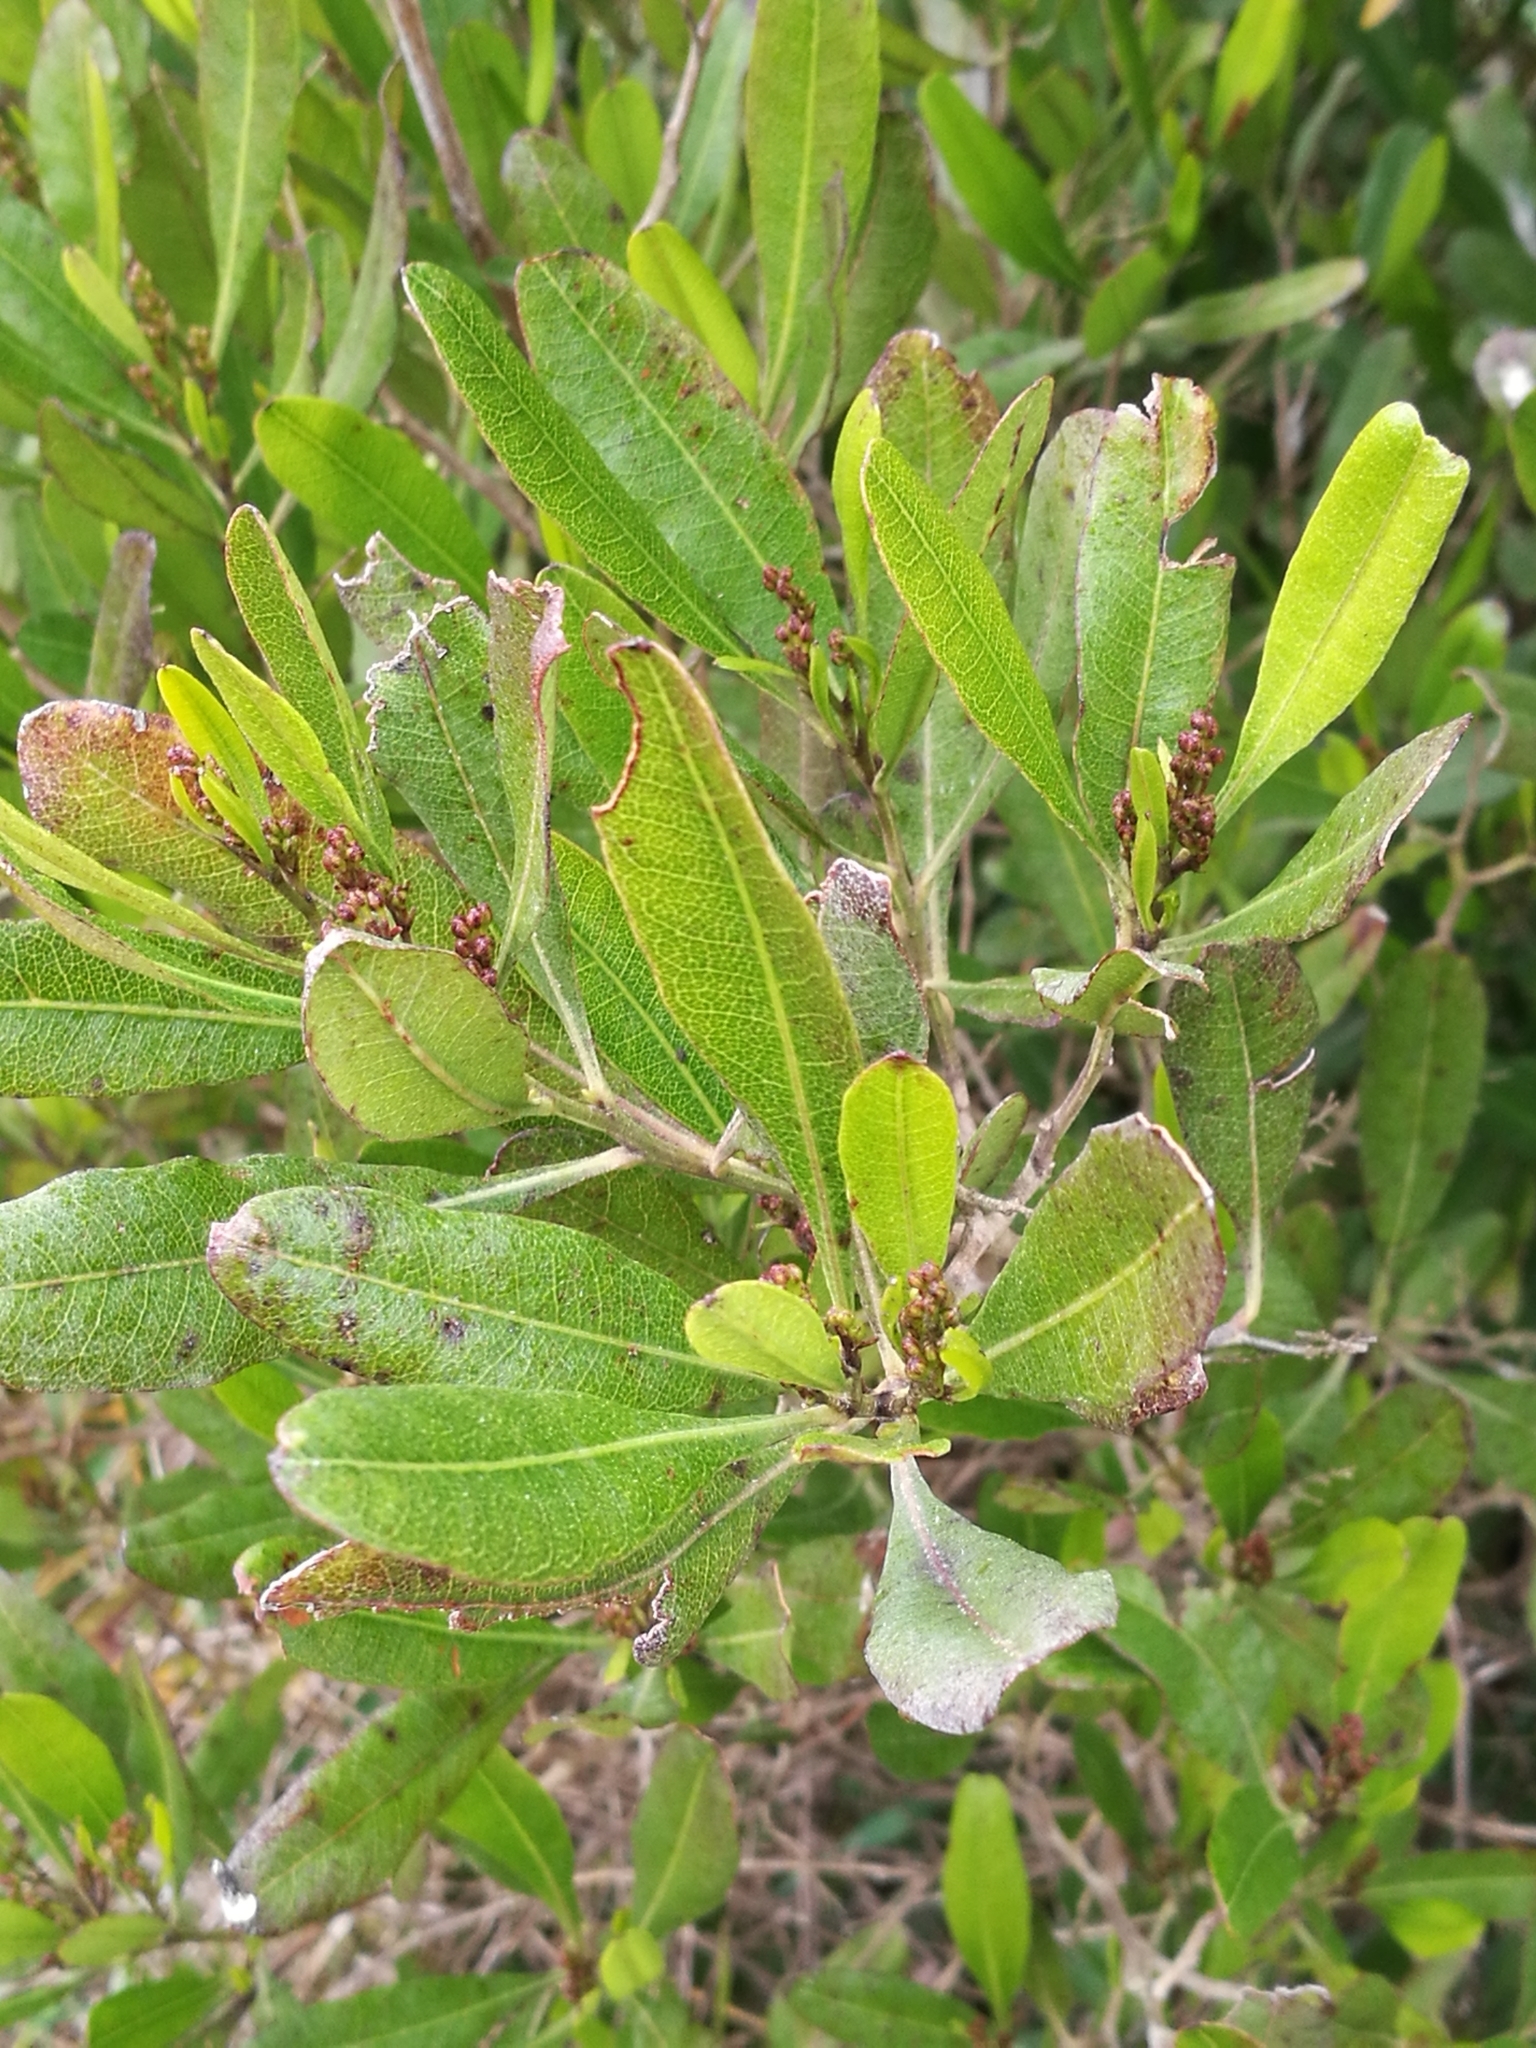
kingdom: Plantae
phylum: Tracheophyta
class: Magnoliopsida
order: Sapindales
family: Sapindaceae
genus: Dodonaea
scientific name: Dodonaea viscosa
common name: Hopbush
